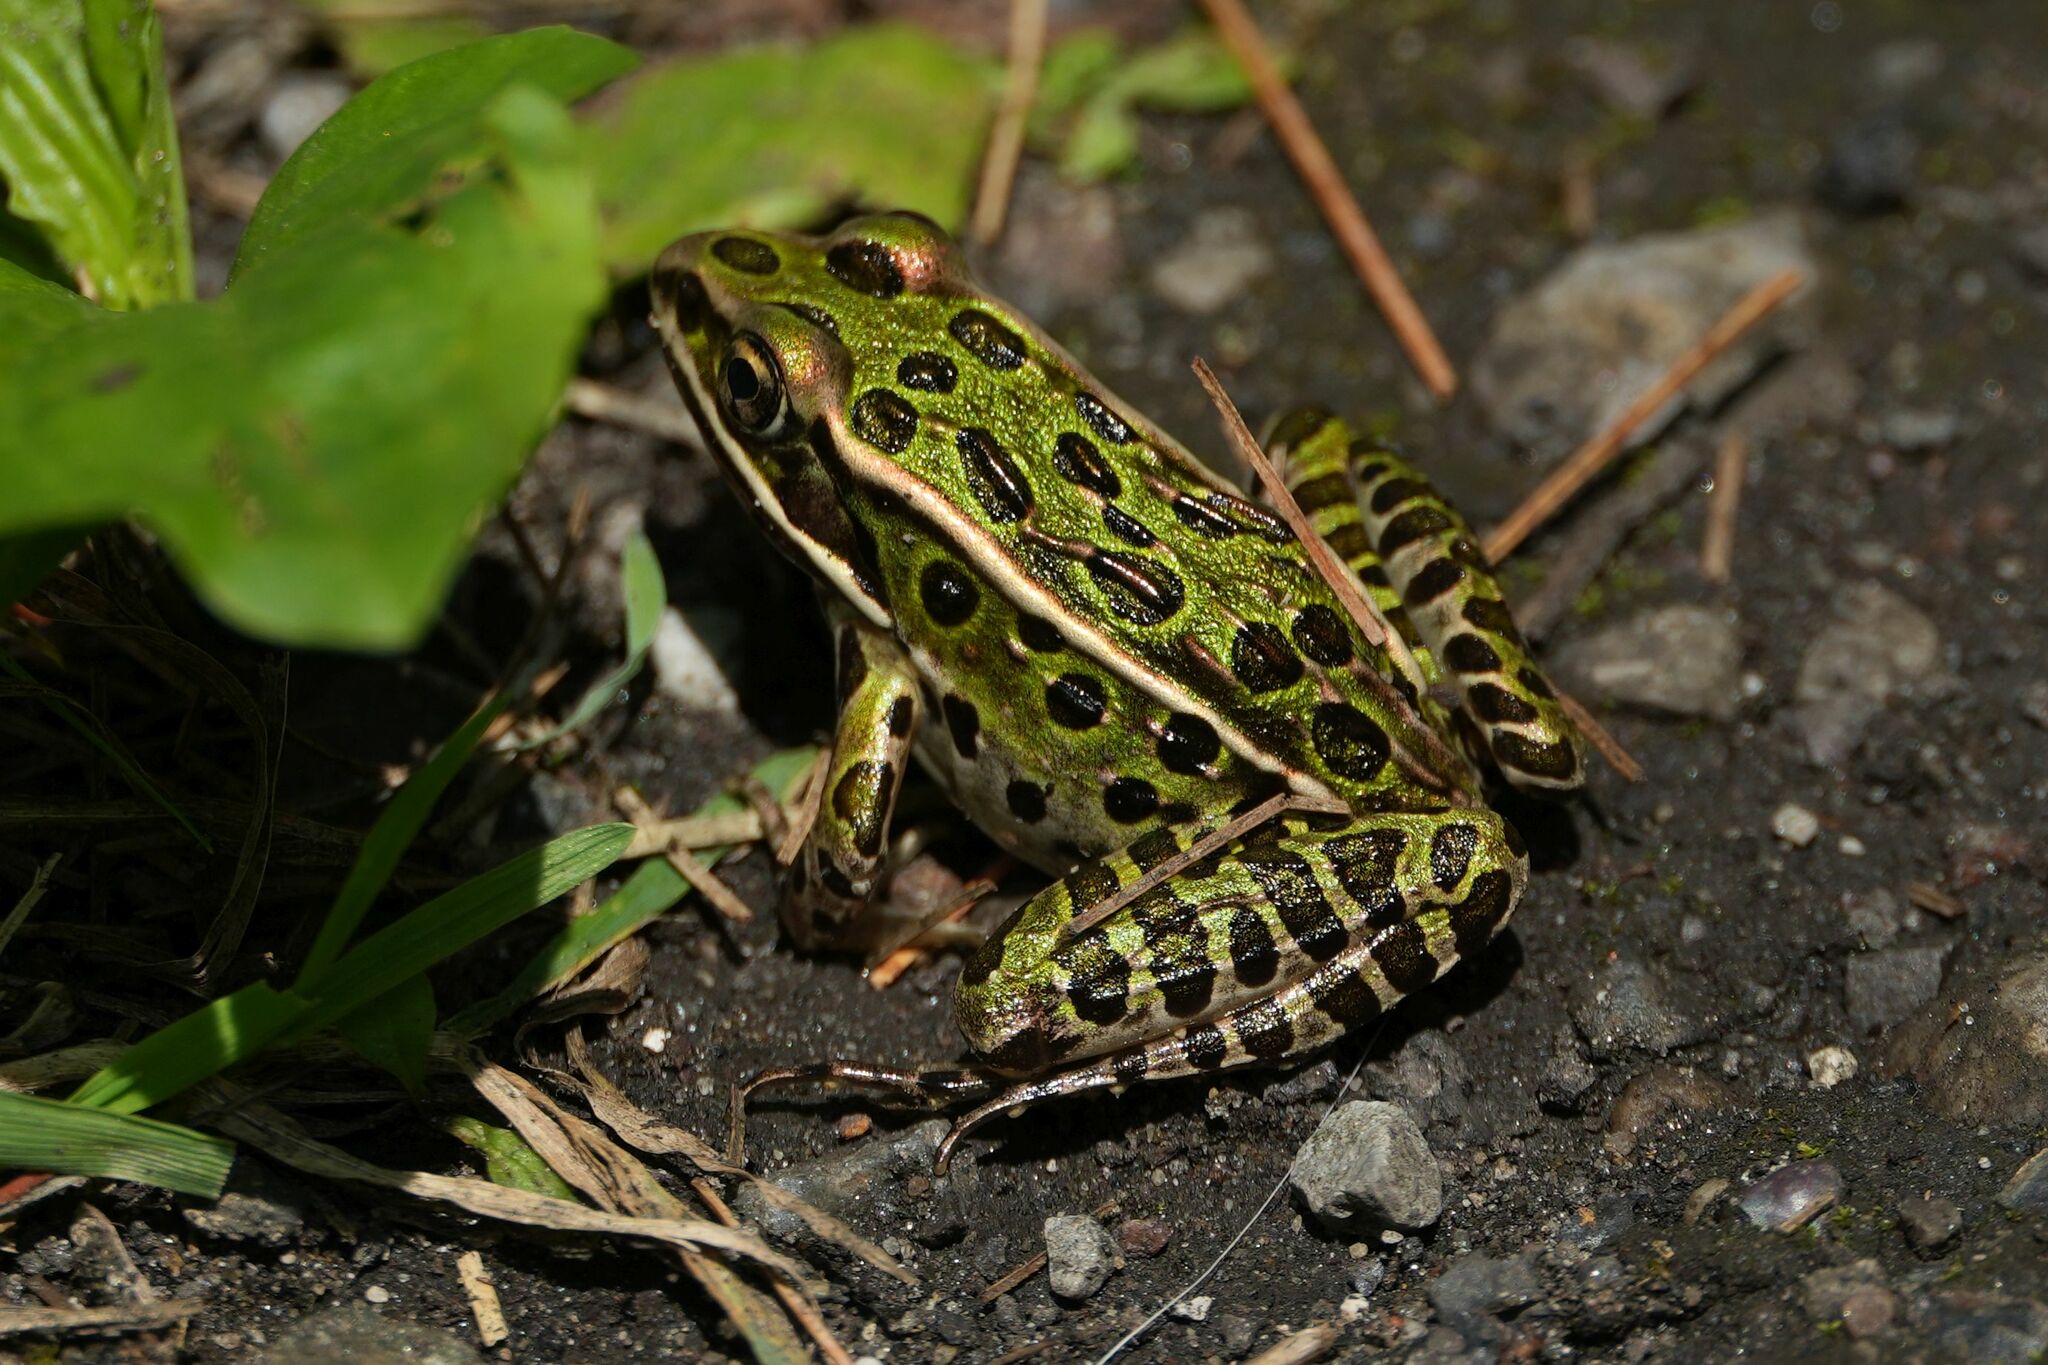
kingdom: Animalia
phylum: Chordata
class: Amphibia
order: Anura
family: Ranidae
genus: Lithobates
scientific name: Lithobates pipiens
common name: Northern leopard frog
